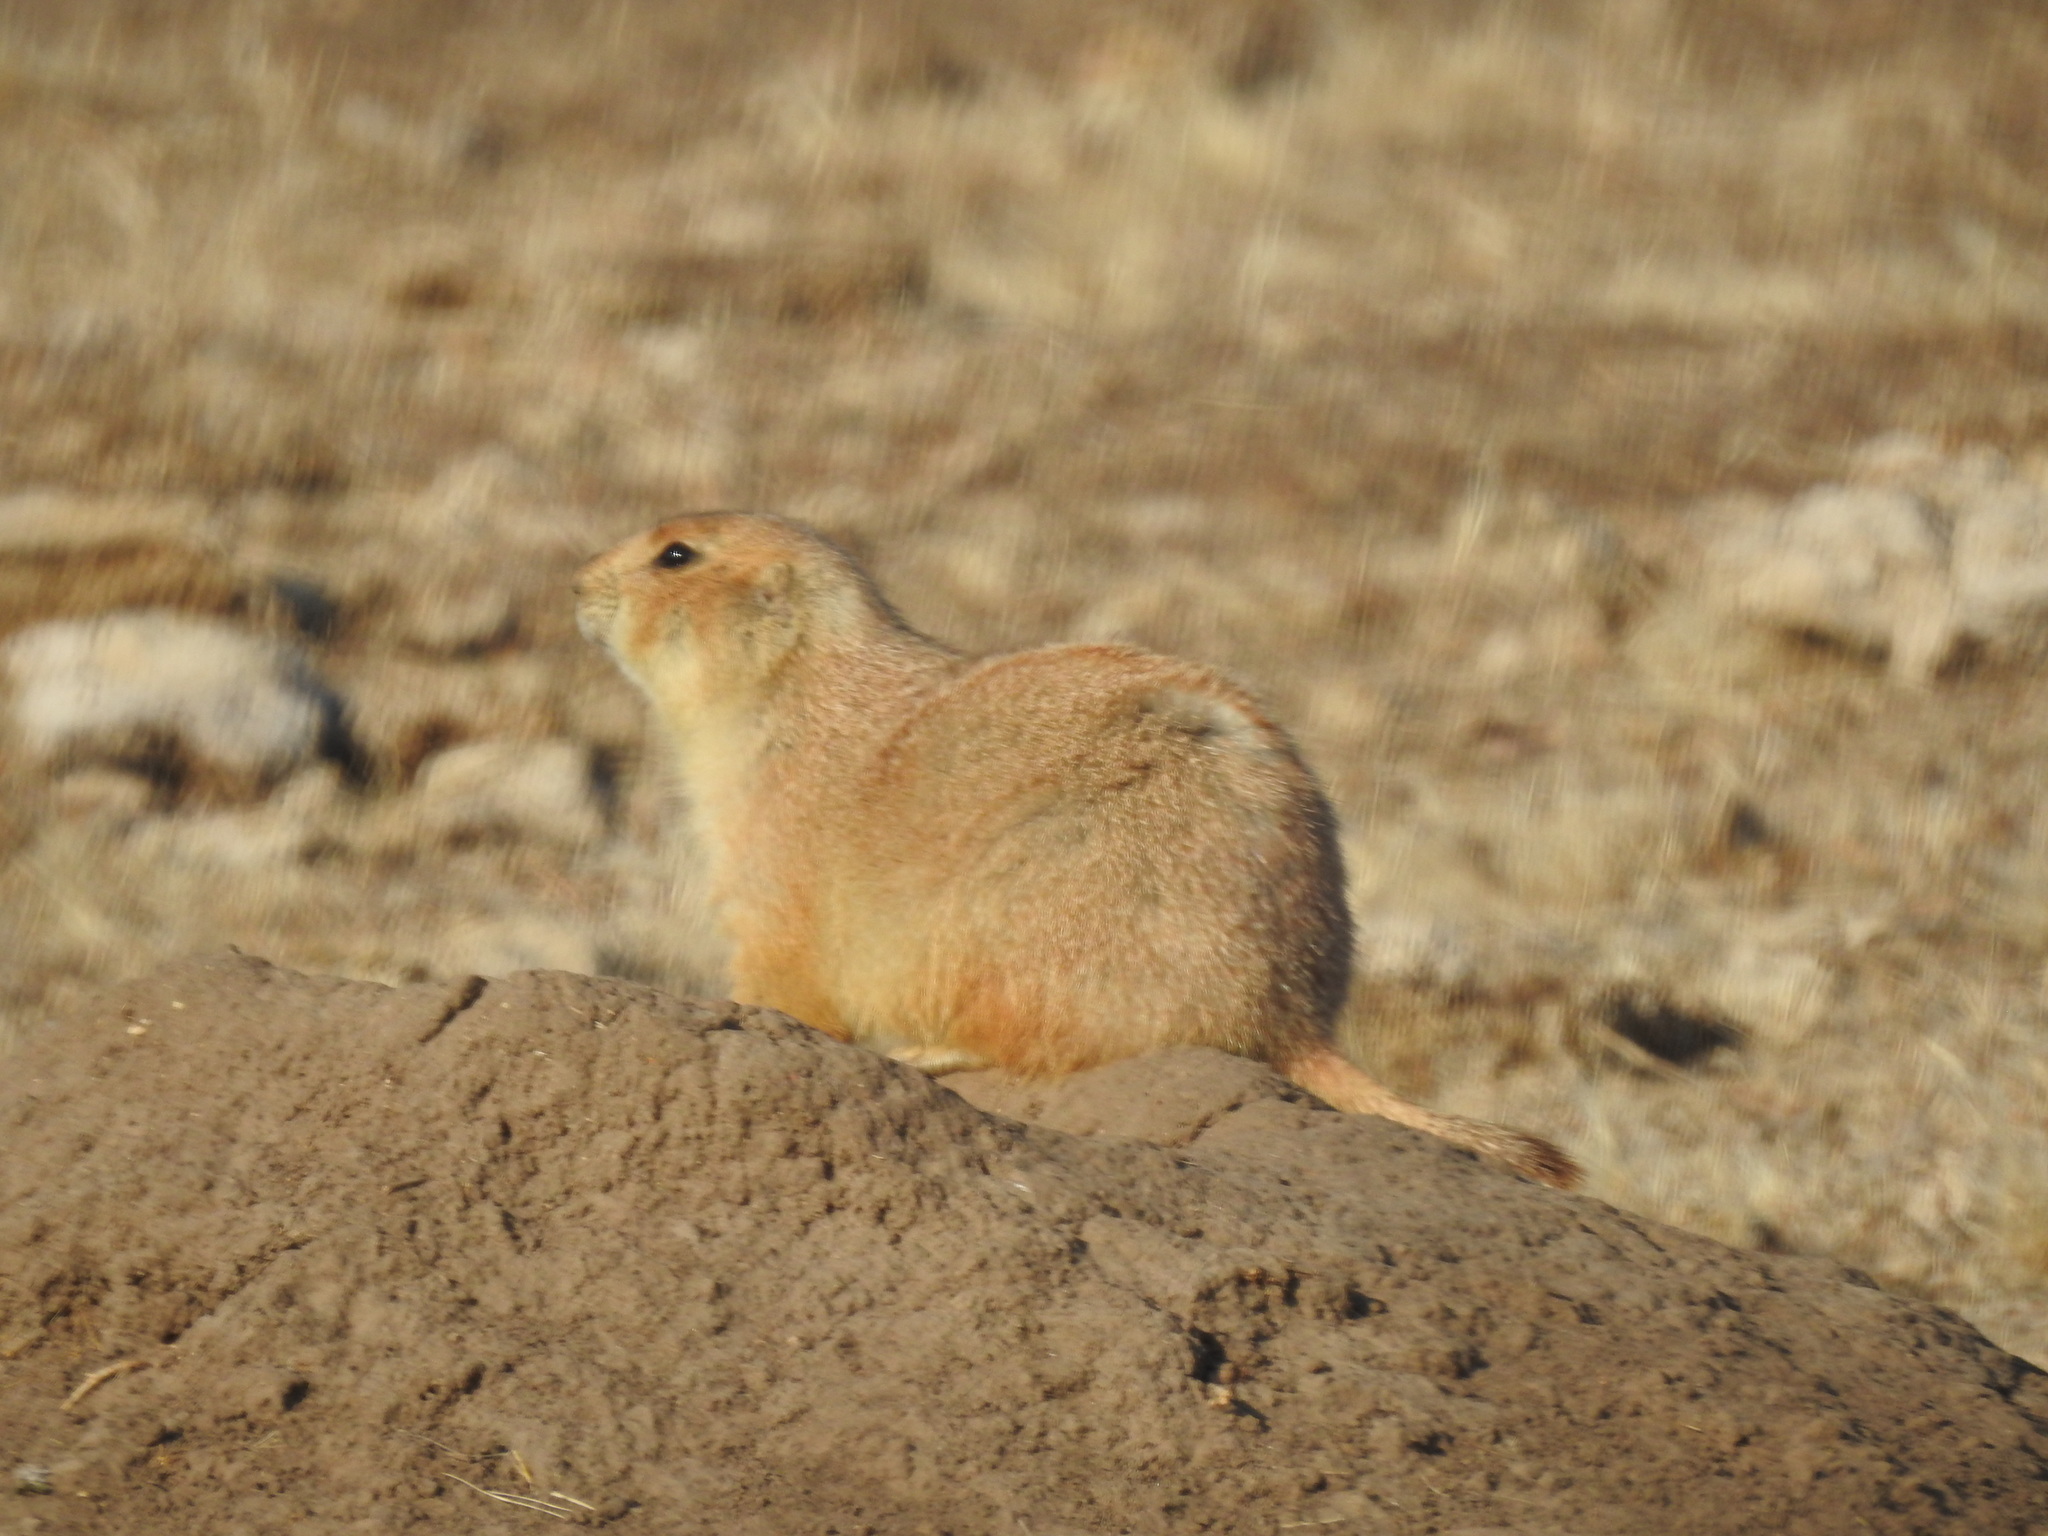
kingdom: Animalia
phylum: Chordata
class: Mammalia
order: Rodentia
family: Sciuridae
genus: Cynomys
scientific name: Cynomys ludovicianus
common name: Black-tailed prairie dog
